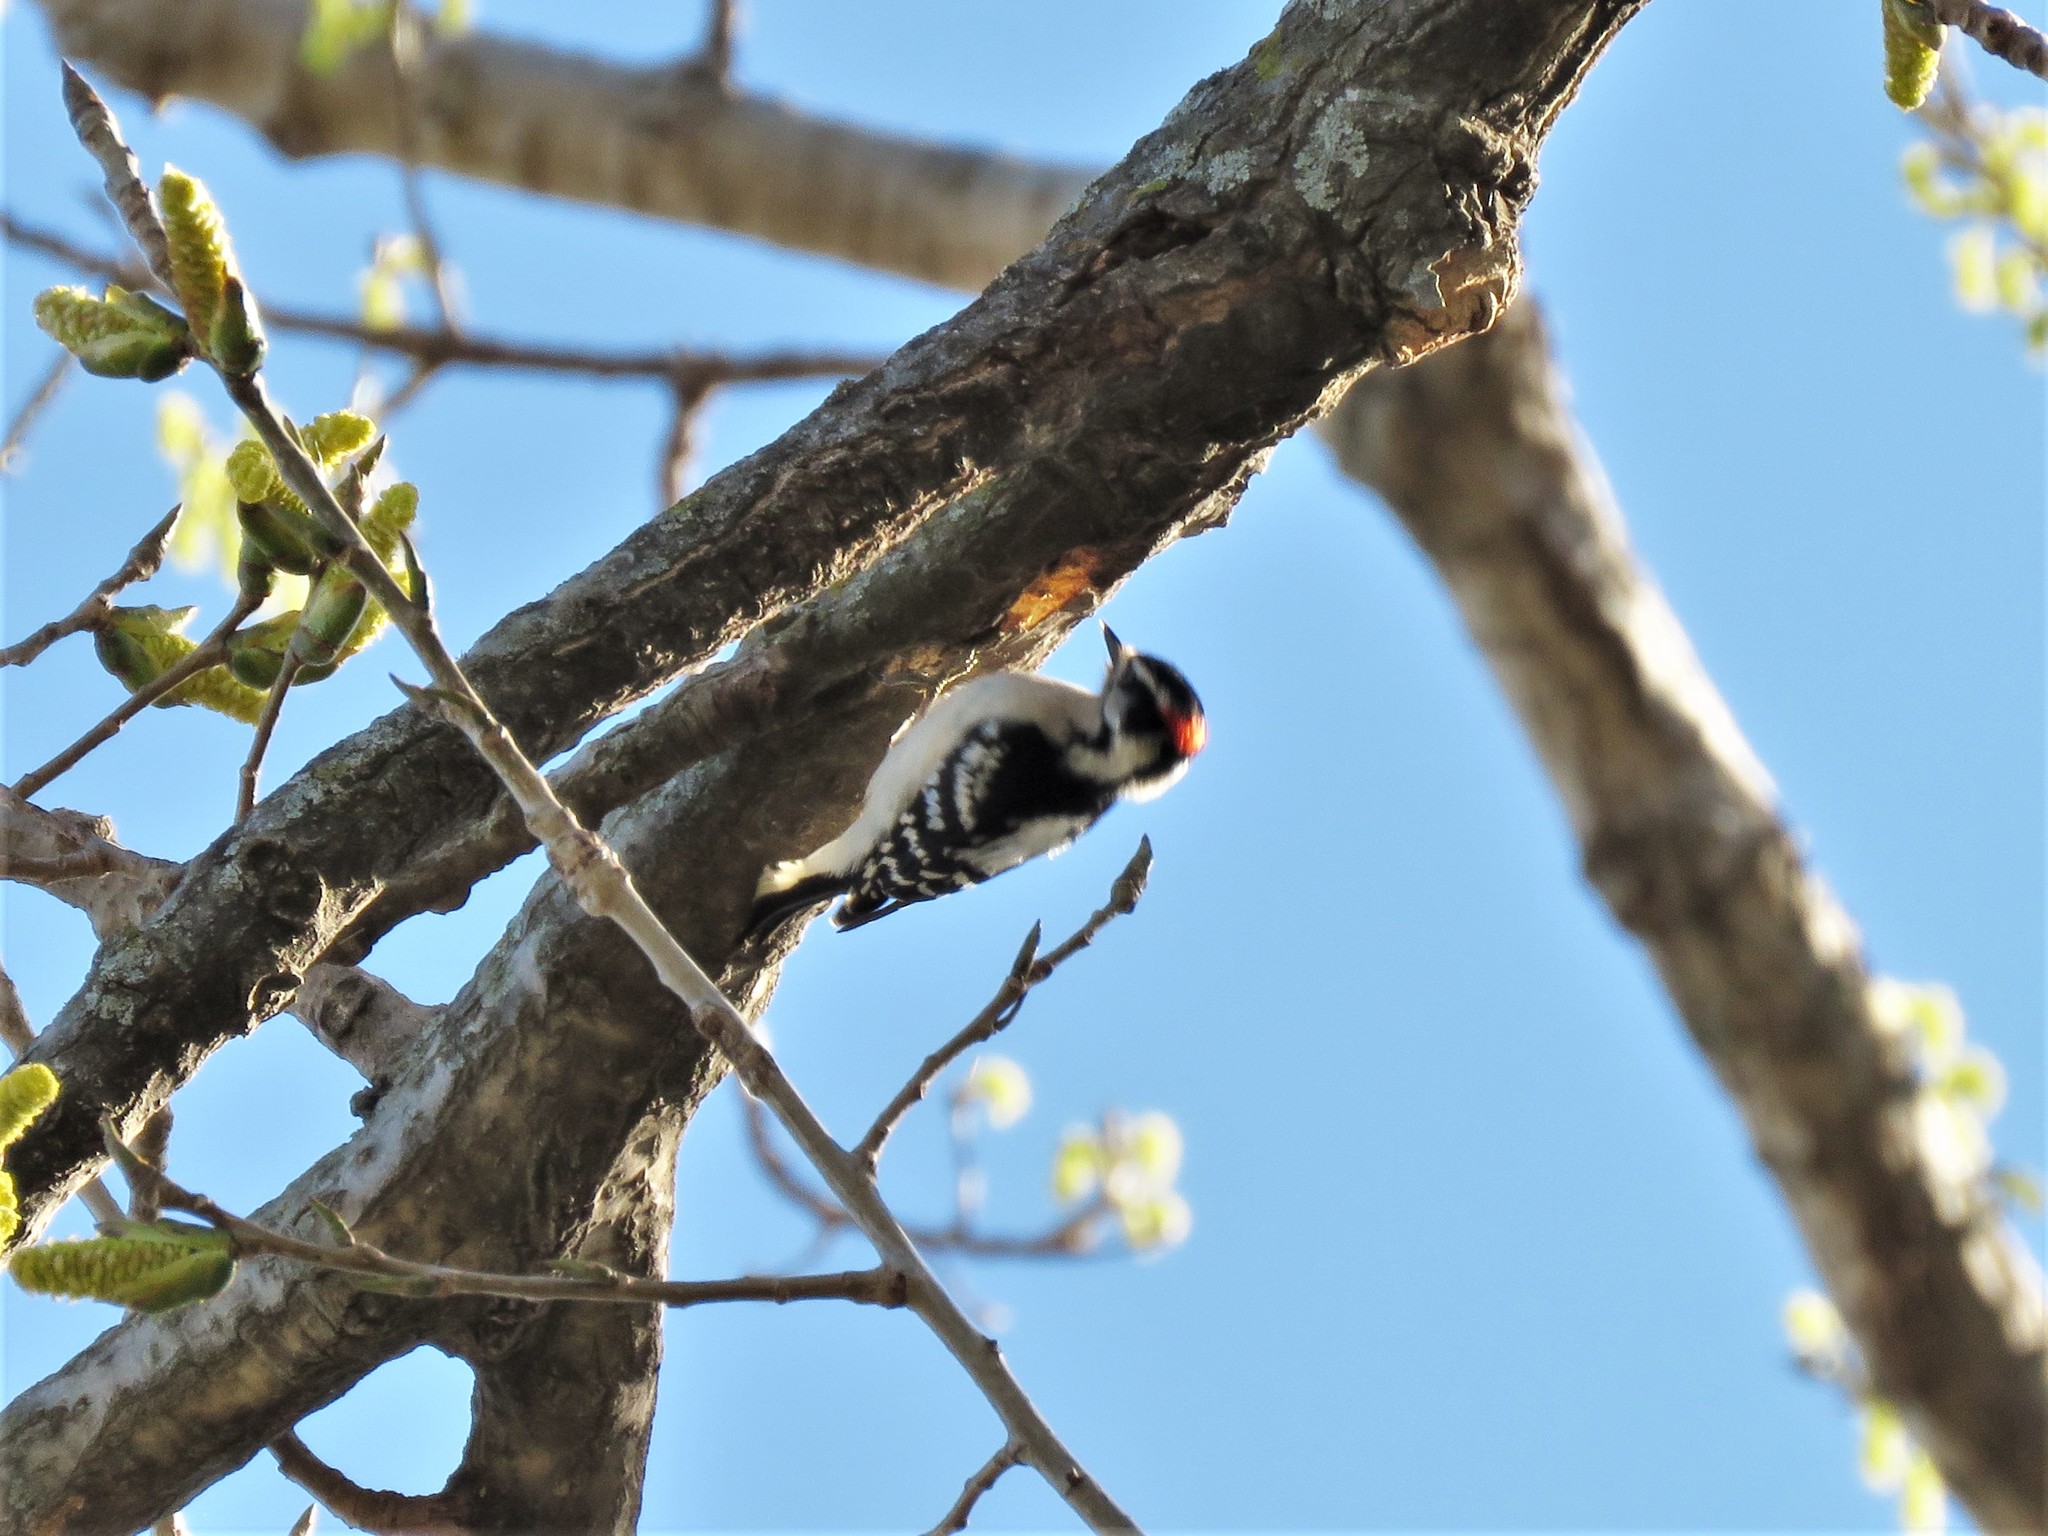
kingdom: Animalia
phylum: Chordata
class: Aves
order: Piciformes
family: Picidae
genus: Dryobates
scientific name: Dryobates pubescens
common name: Downy woodpecker
